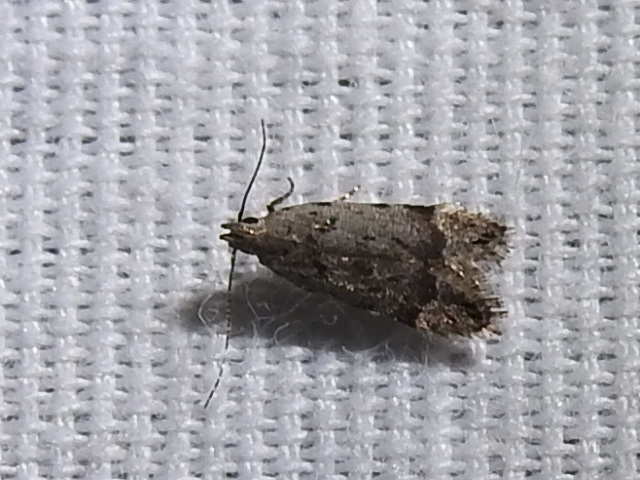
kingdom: Animalia
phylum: Arthropoda
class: Insecta
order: Lepidoptera
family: Gelechiidae
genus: Anacampsis
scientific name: Anacampsis conclusella
